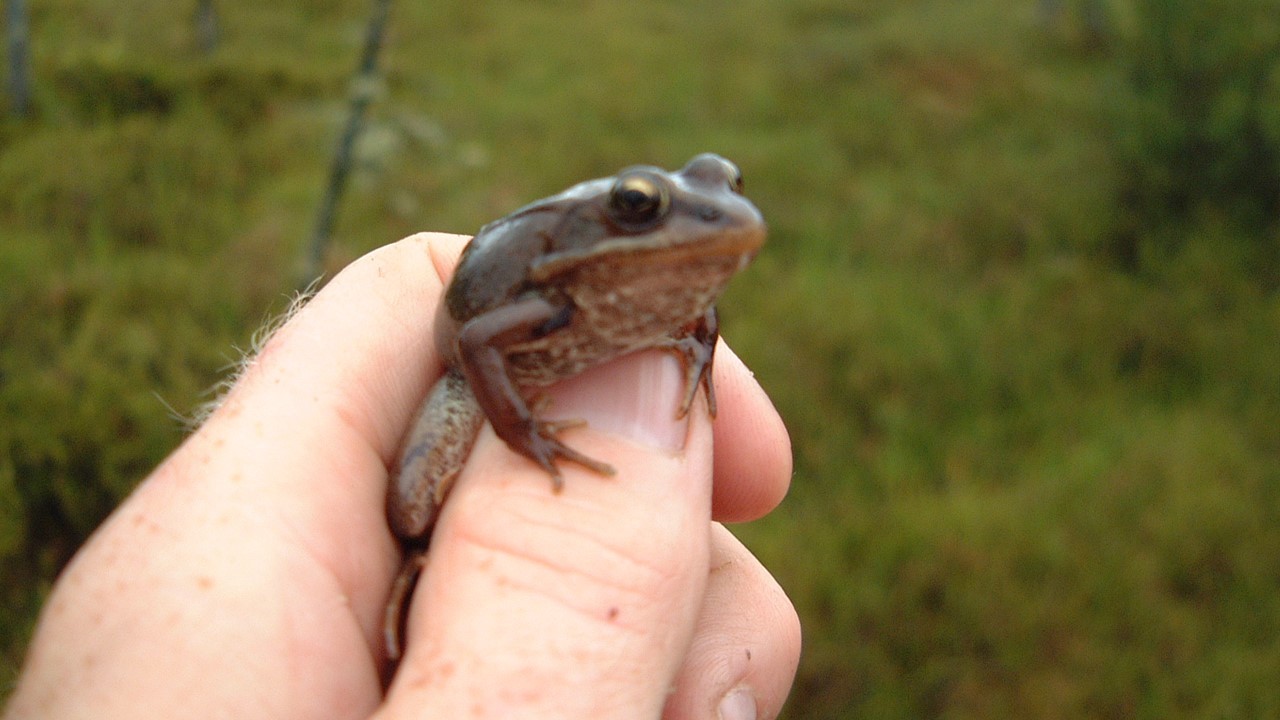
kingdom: Animalia
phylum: Chordata
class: Amphibia
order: Anura
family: Ranidae
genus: Lithobates
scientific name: Lithobates sylvaticus
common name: Wood frog
